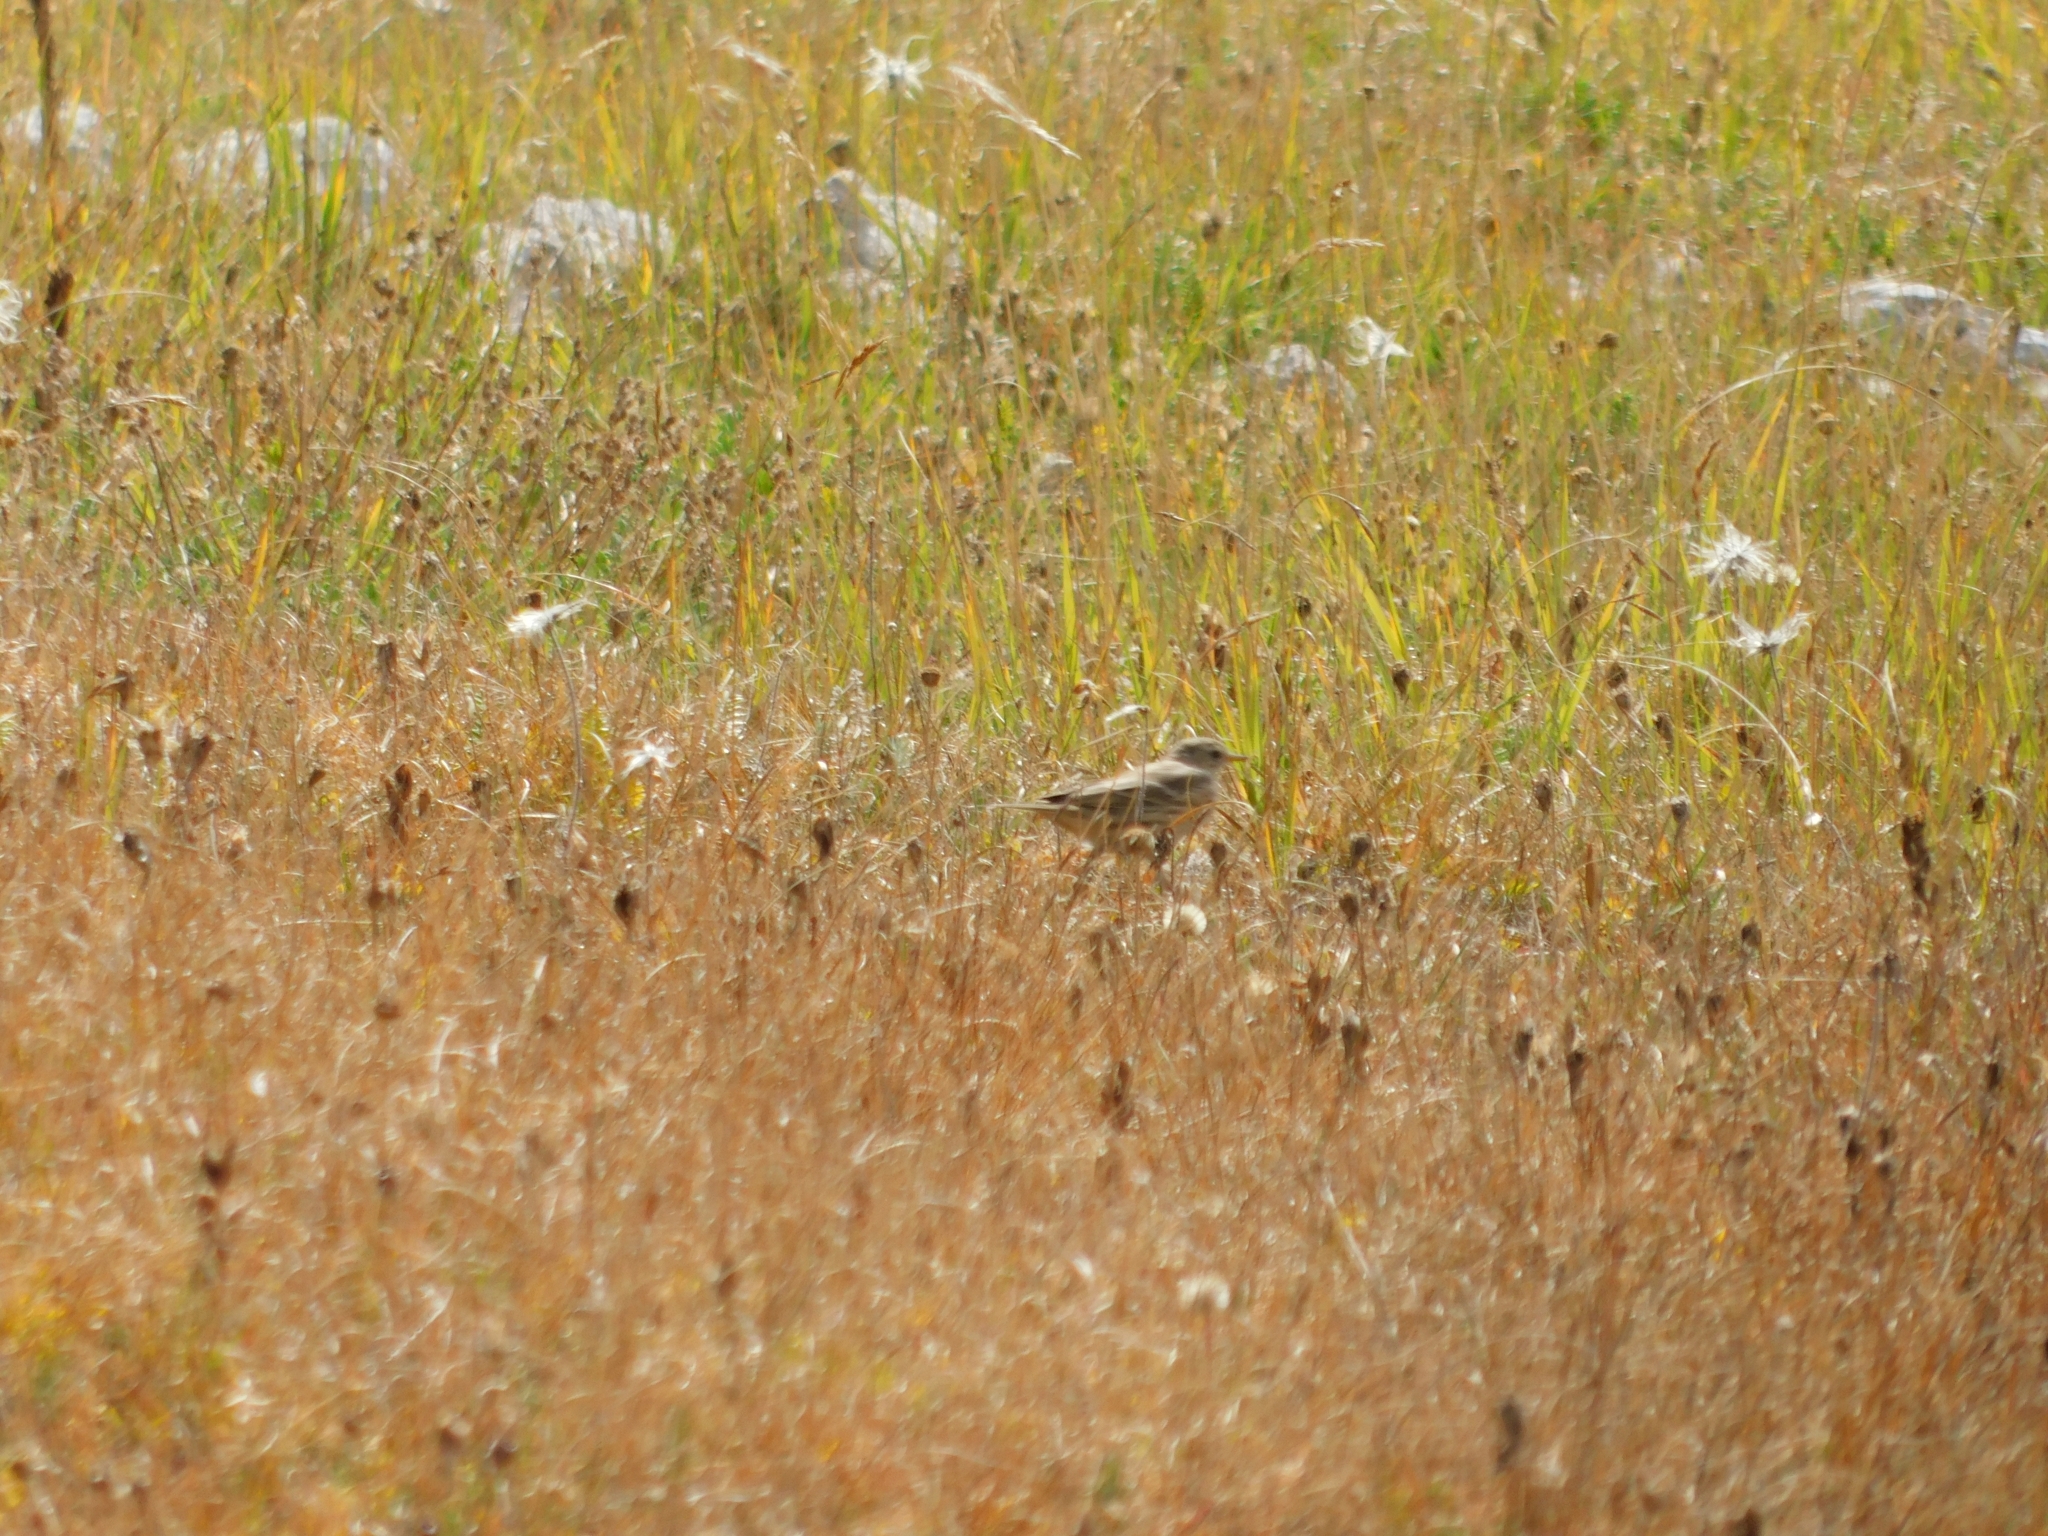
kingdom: Animalia
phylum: Chordata
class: Aves
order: Passeriformes
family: Motacillidae
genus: Anthus
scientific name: Anthus spinoletta
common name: Water pipit
